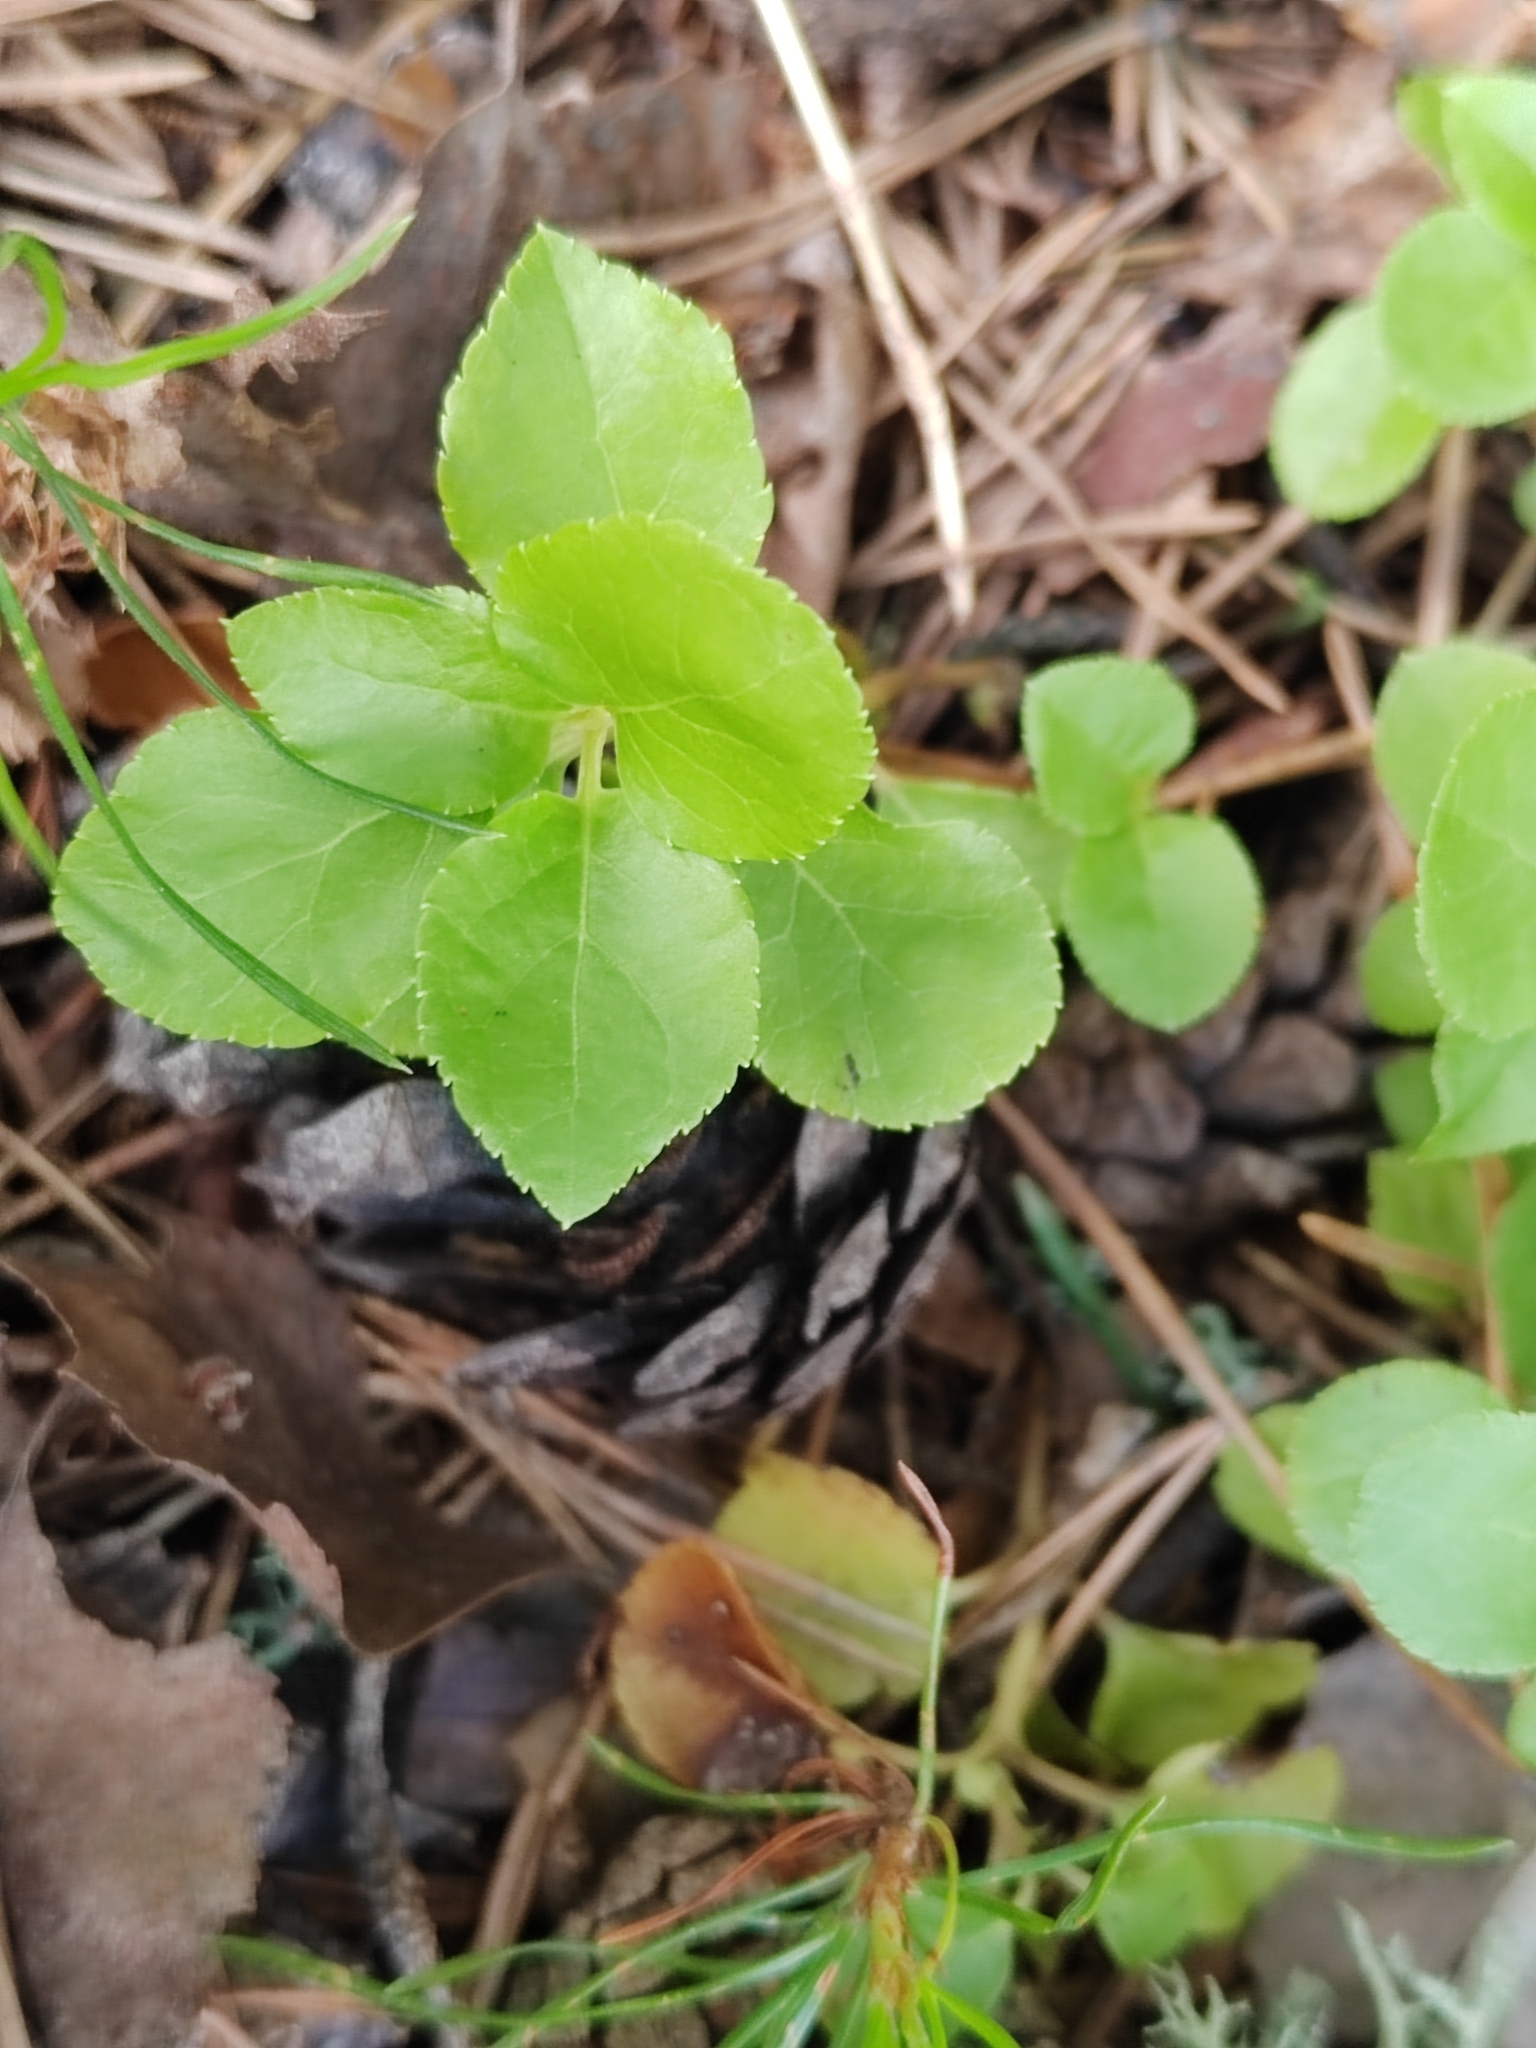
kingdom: Plantae
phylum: Tracheophyta
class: Magnoliopsida
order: Ericales
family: Ericaceae
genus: Orthilia
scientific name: Orthilia secunda
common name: One-sided orthilia
